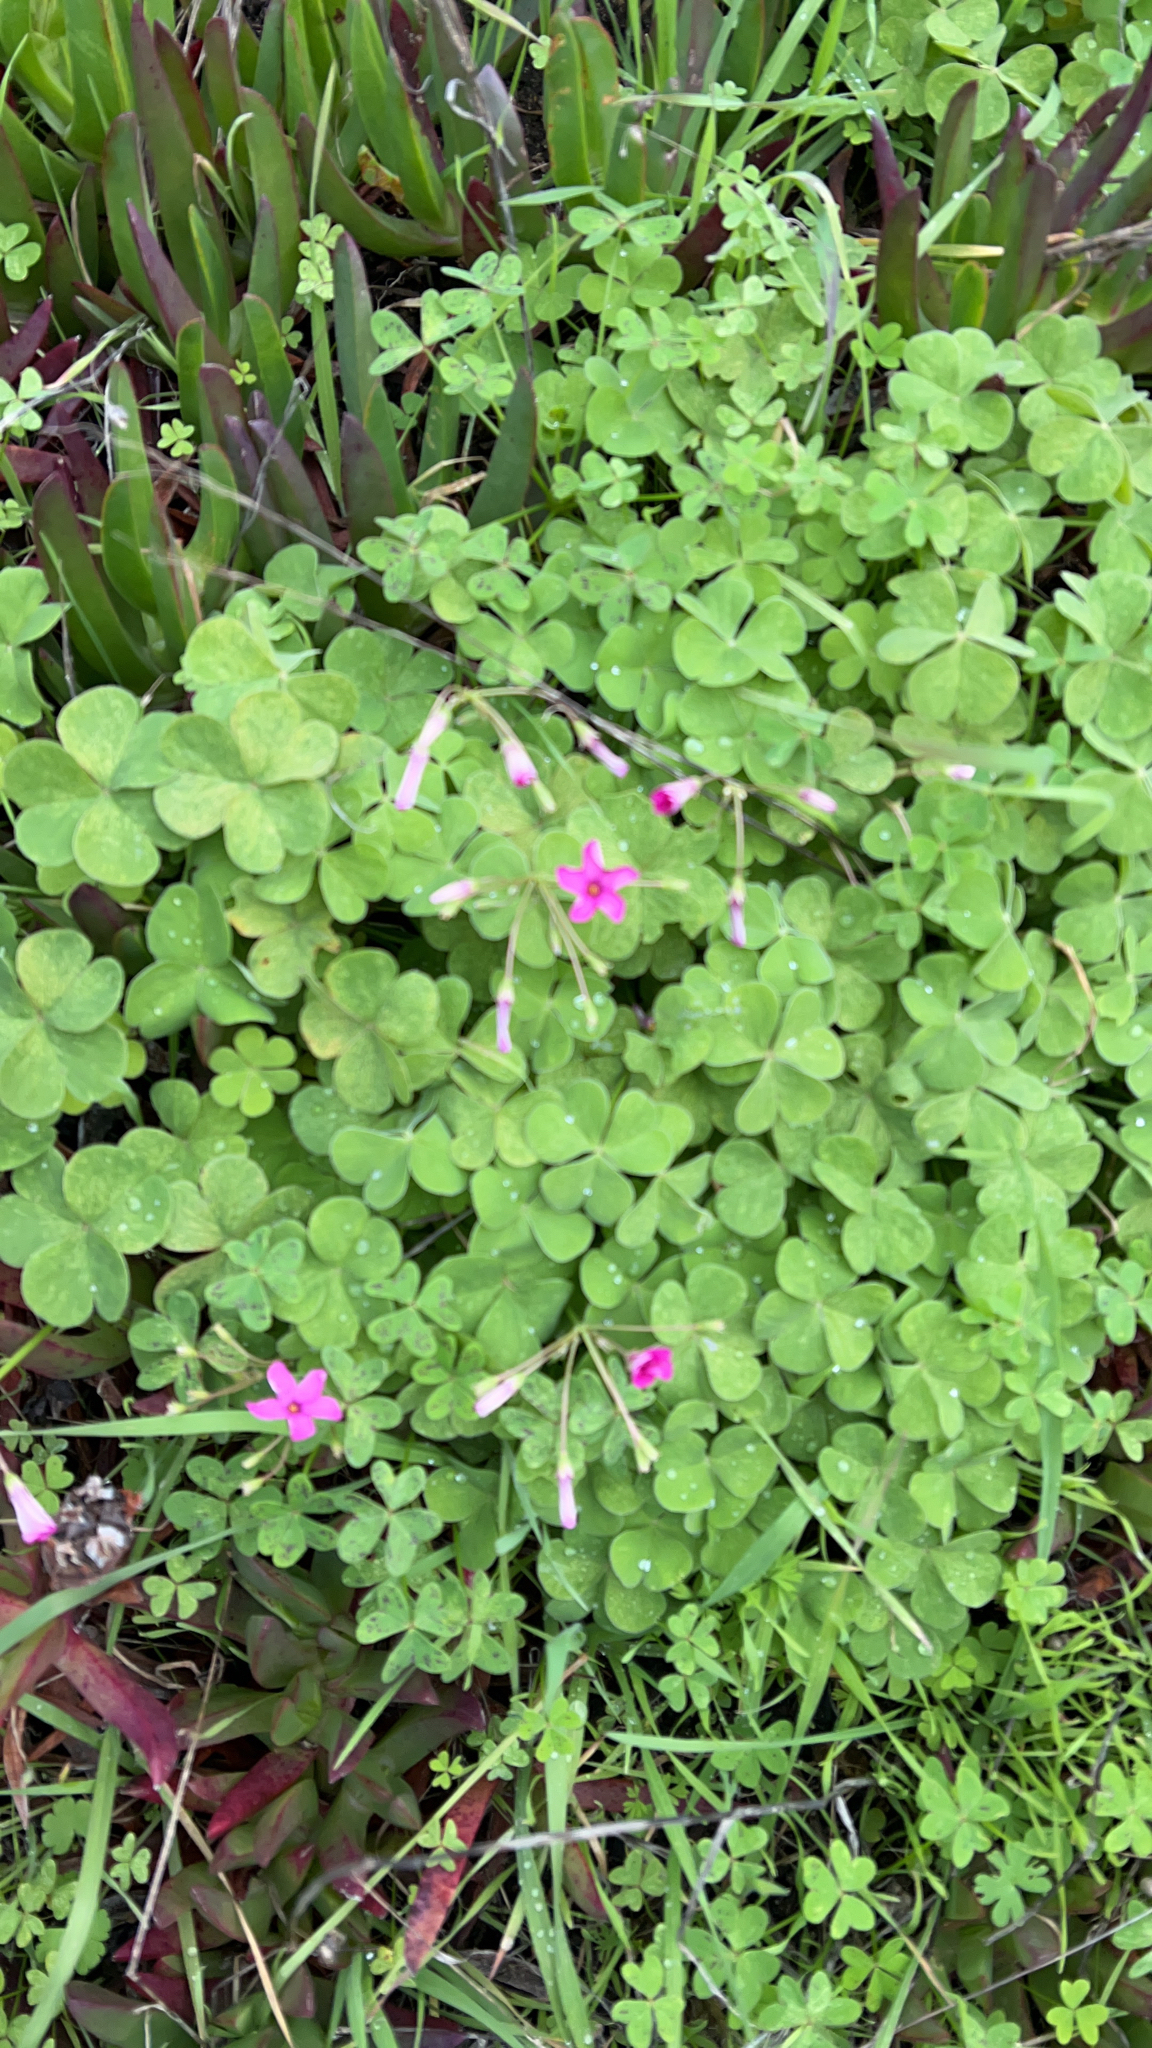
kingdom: Plantae
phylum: Tracheophyta
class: Magnoliopsida
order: Oxalidales
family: Oxalidaceae
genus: Oxalis
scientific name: Oxalis articulata
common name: Pink-sorrel
